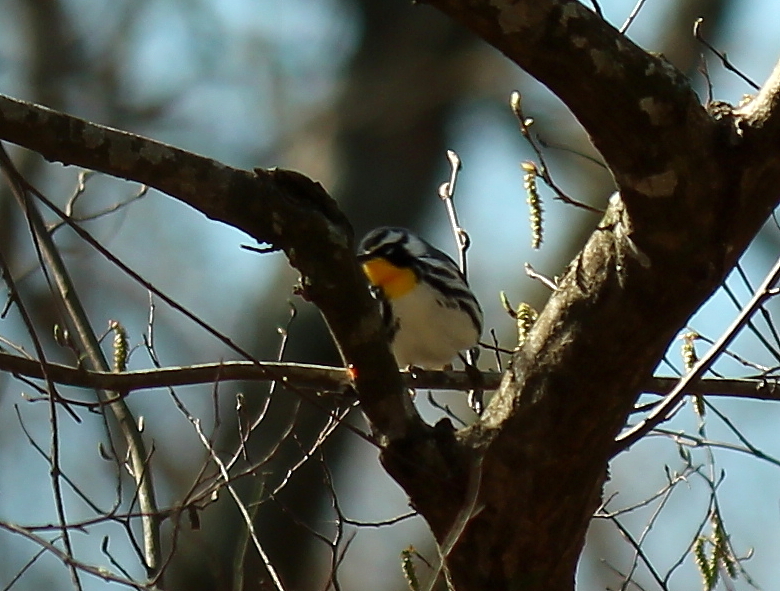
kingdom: Animalia
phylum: Chordata
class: Aves
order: Passeriformes
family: Parulidae
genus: Setophaga
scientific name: Setophaga dominica
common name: Yellow-throated warbler
